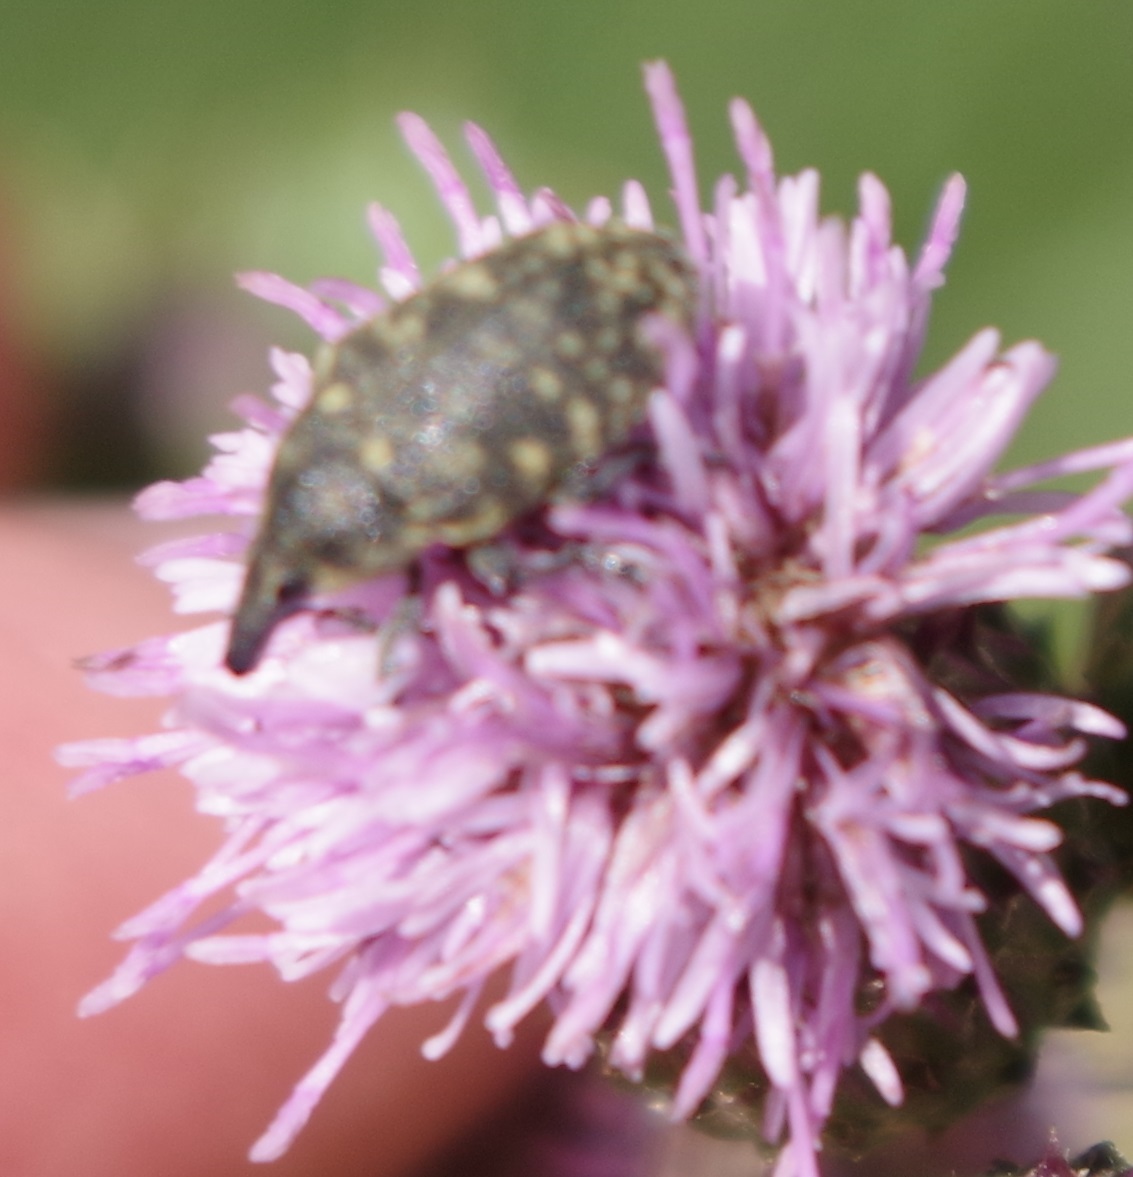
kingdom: Animalia
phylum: Arthropoda
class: Insecta
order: Coleoptera
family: Curculionidae
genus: Larinus
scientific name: Larinus turbinatus
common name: Weevil
